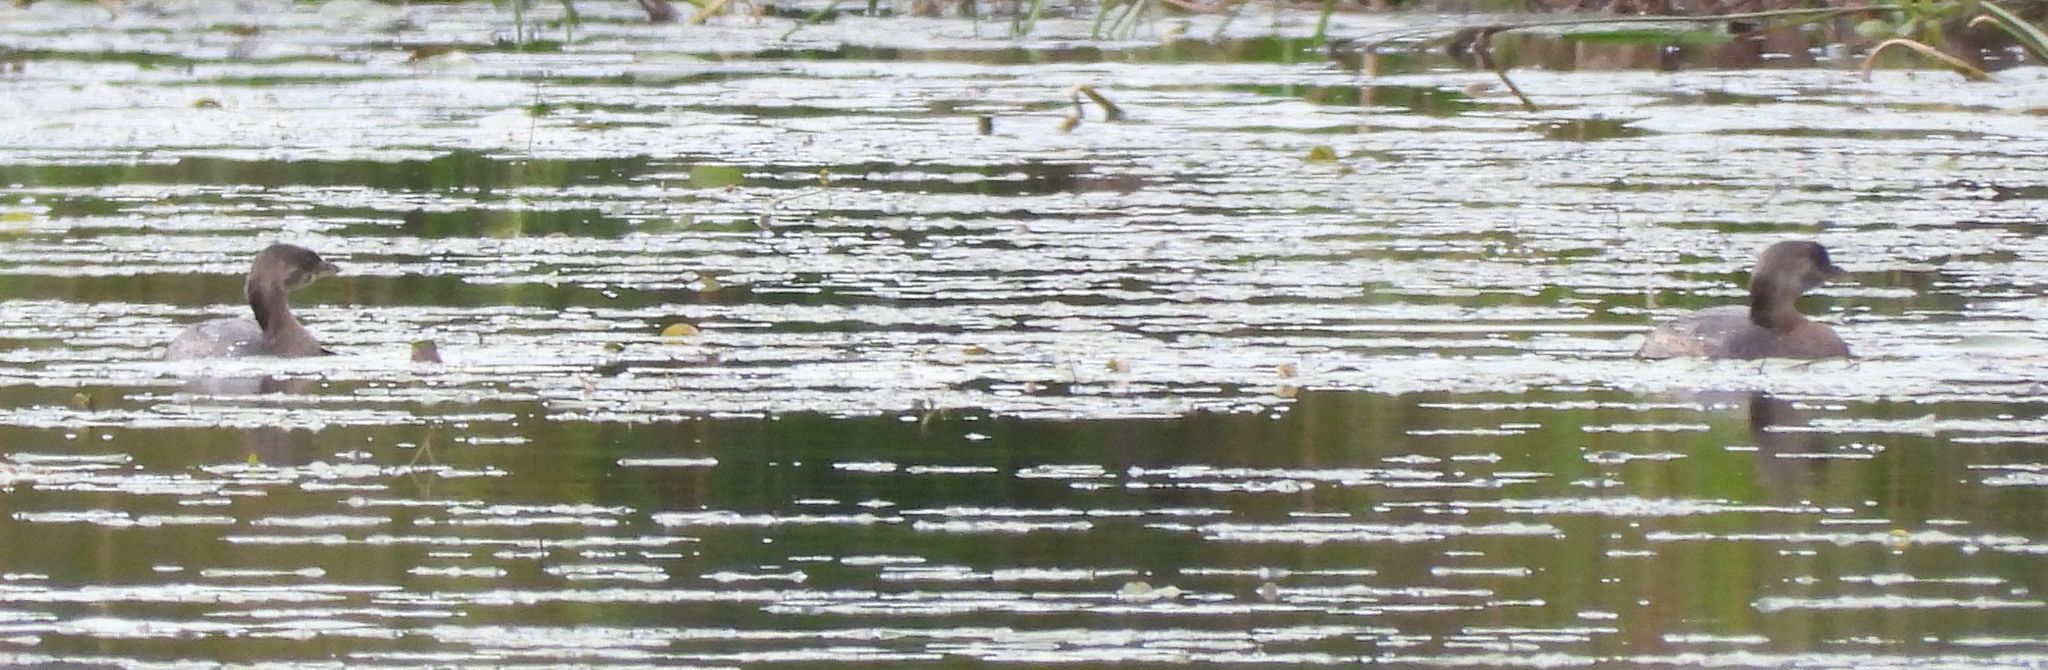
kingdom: Animalia
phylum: Chordata
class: Aves
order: Podicipediformes
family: Podicipedidae
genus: Podilymbus
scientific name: Podilymbus podiceps
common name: Pied-billed grebe
